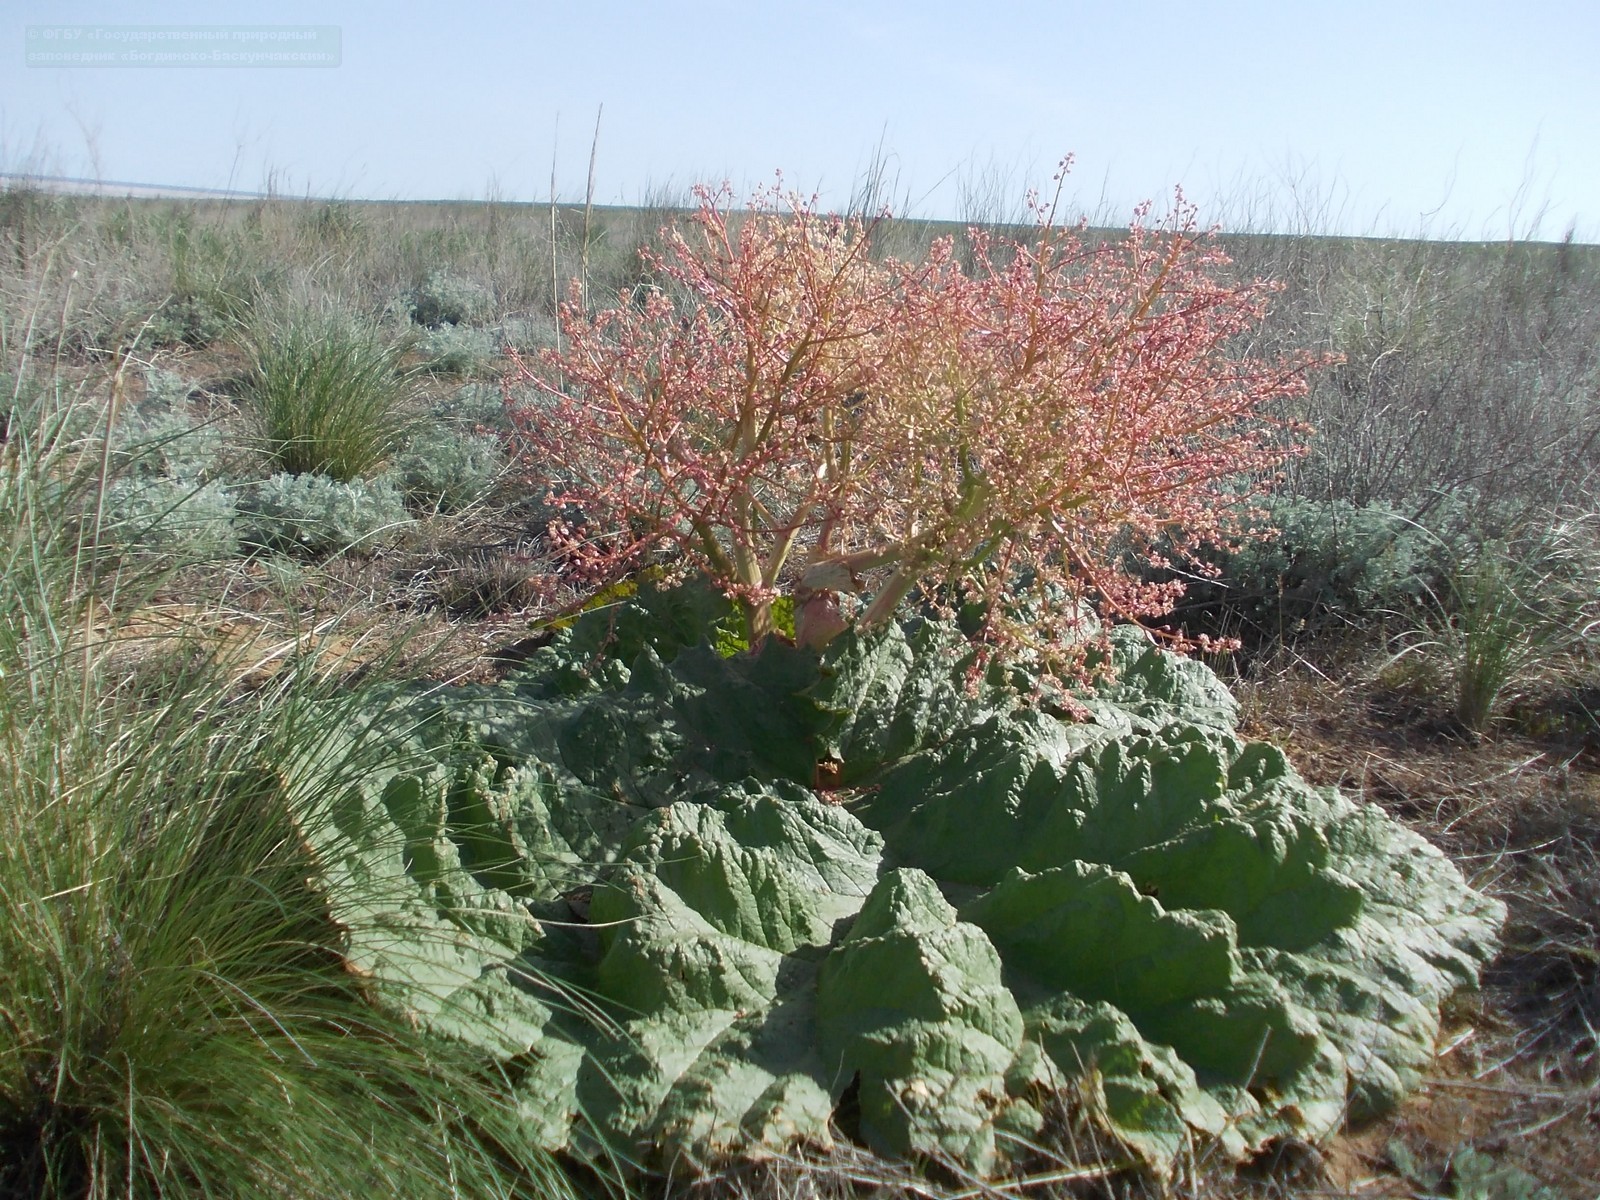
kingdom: Plantae
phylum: Tracheophyta
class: Magnoliopsida
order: Caryophyllales
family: Polygonaceae
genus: Rheum
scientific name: Rheum tataricum
